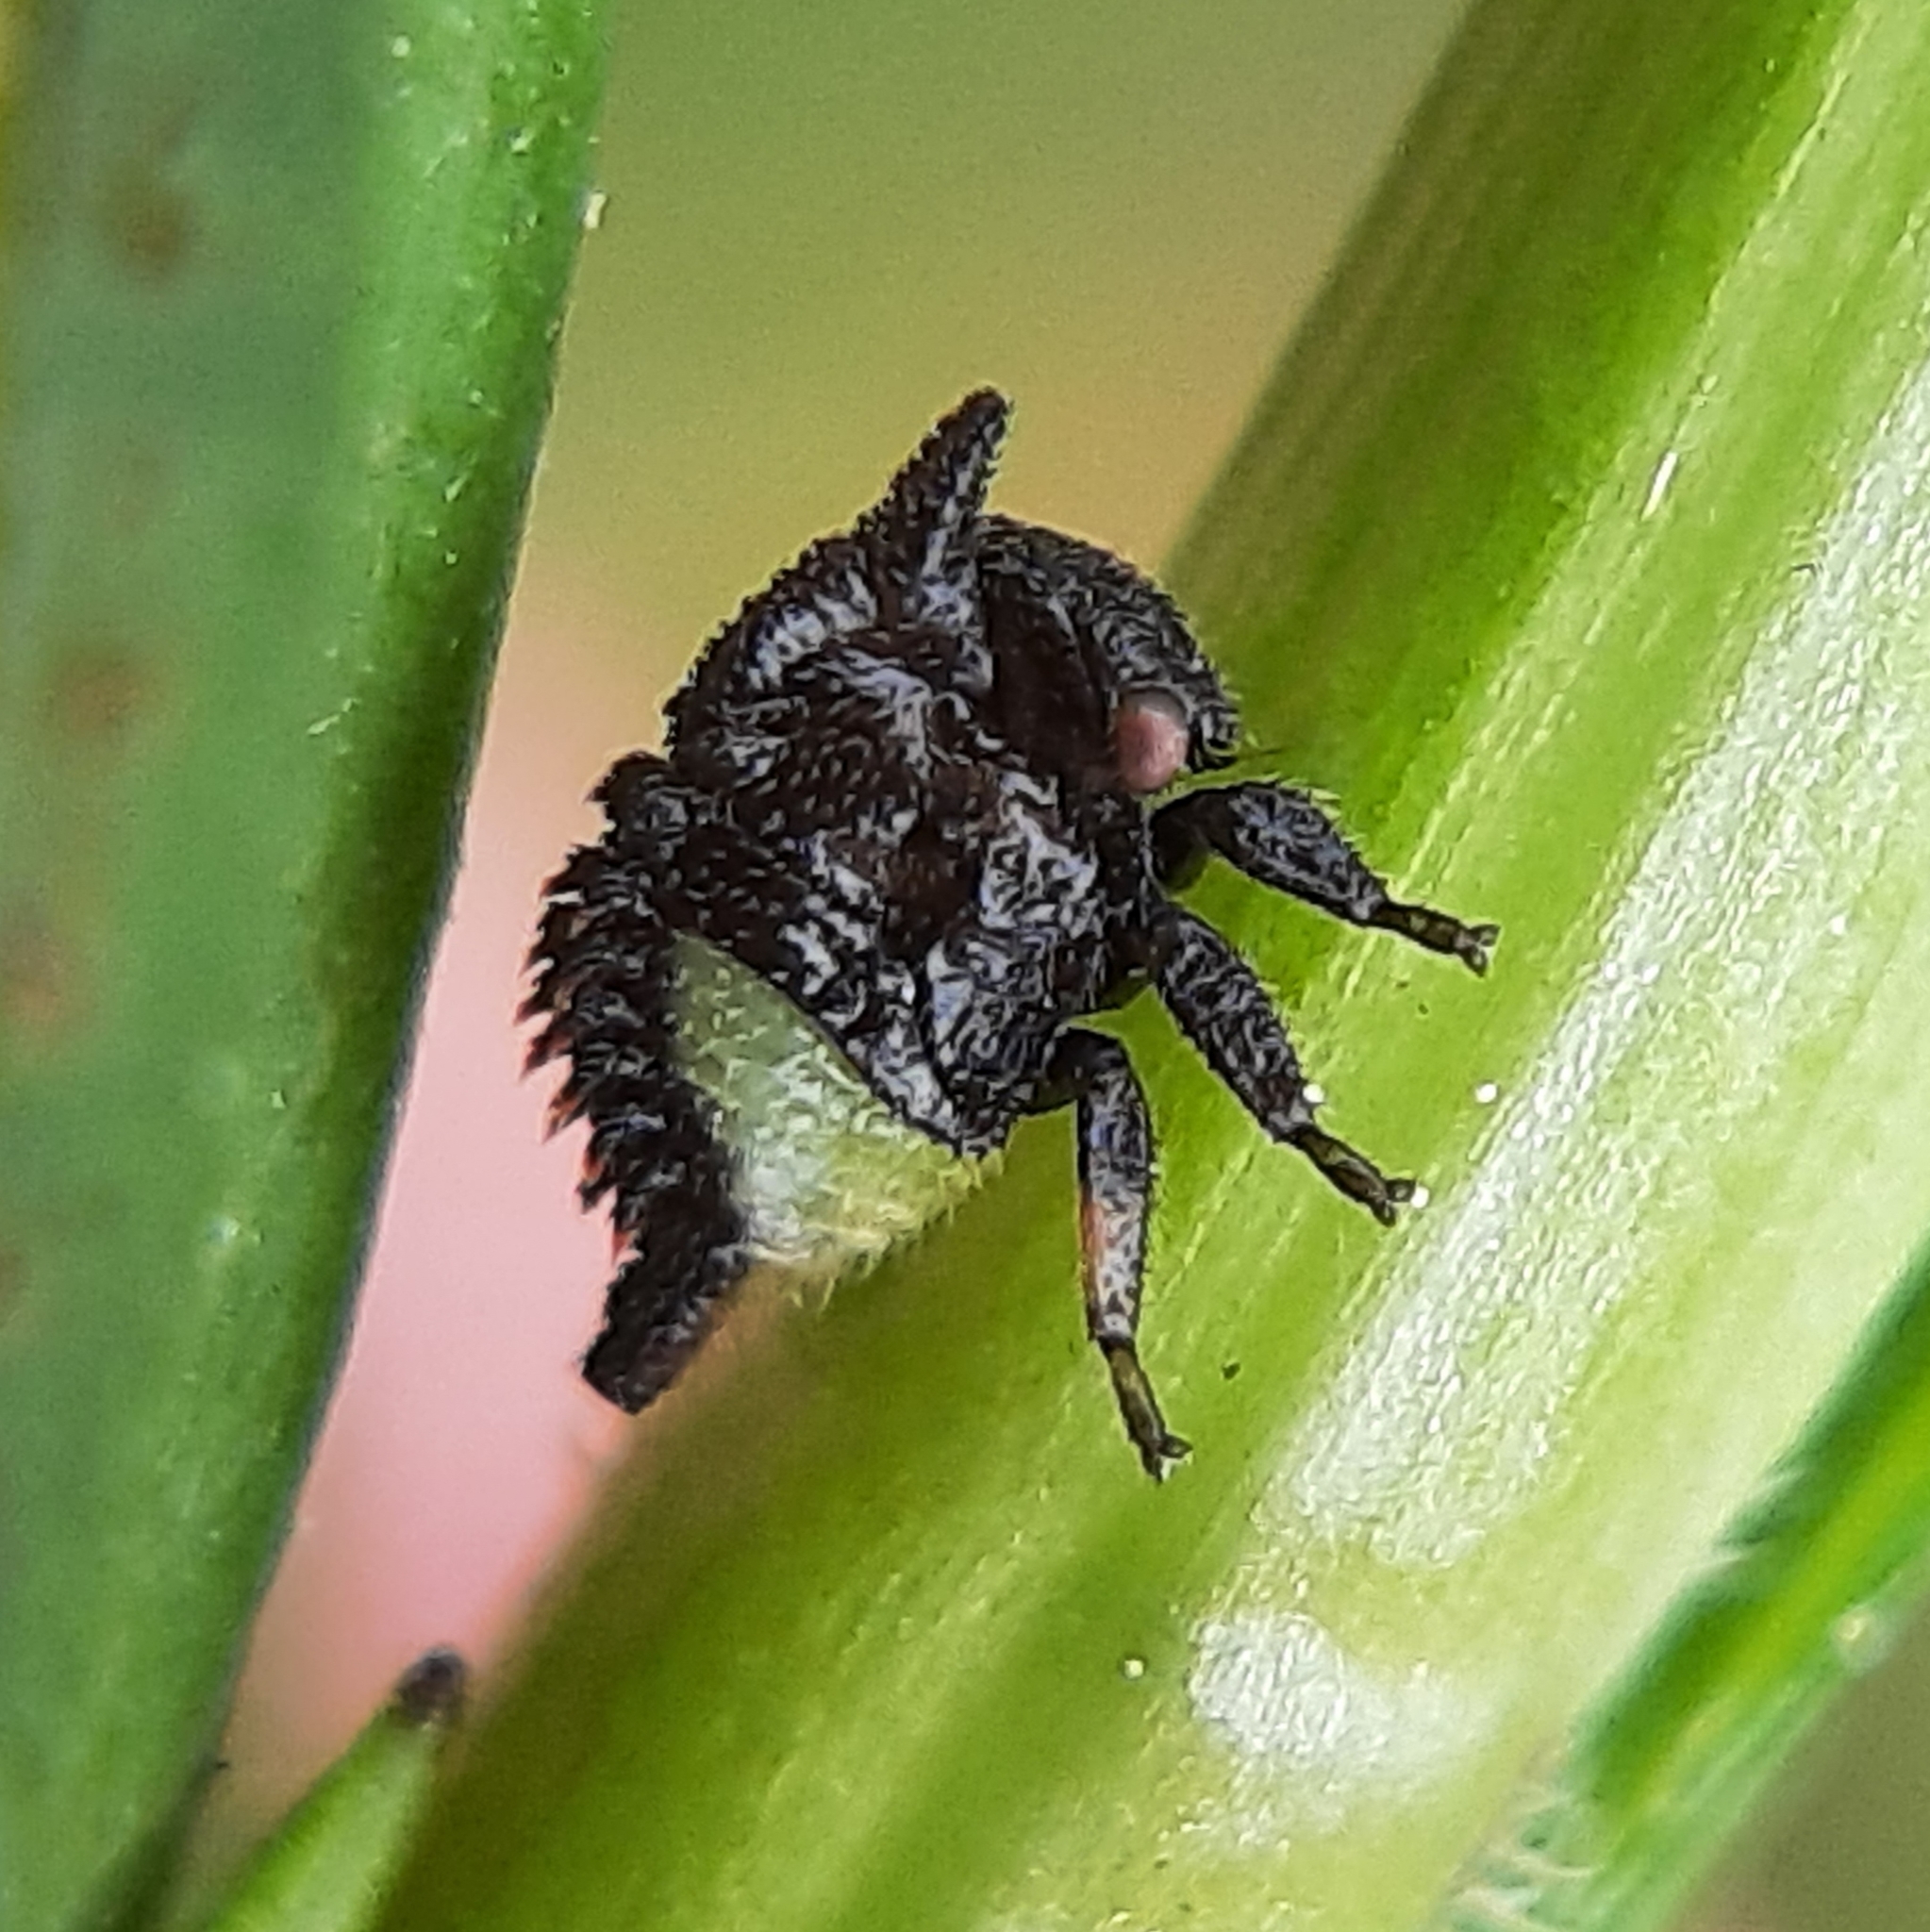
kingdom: Animalia
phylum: Arthropoda
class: Insecta
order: Hemiptera
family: Membracidae
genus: Enchenopa
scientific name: Enchenopa latipes
